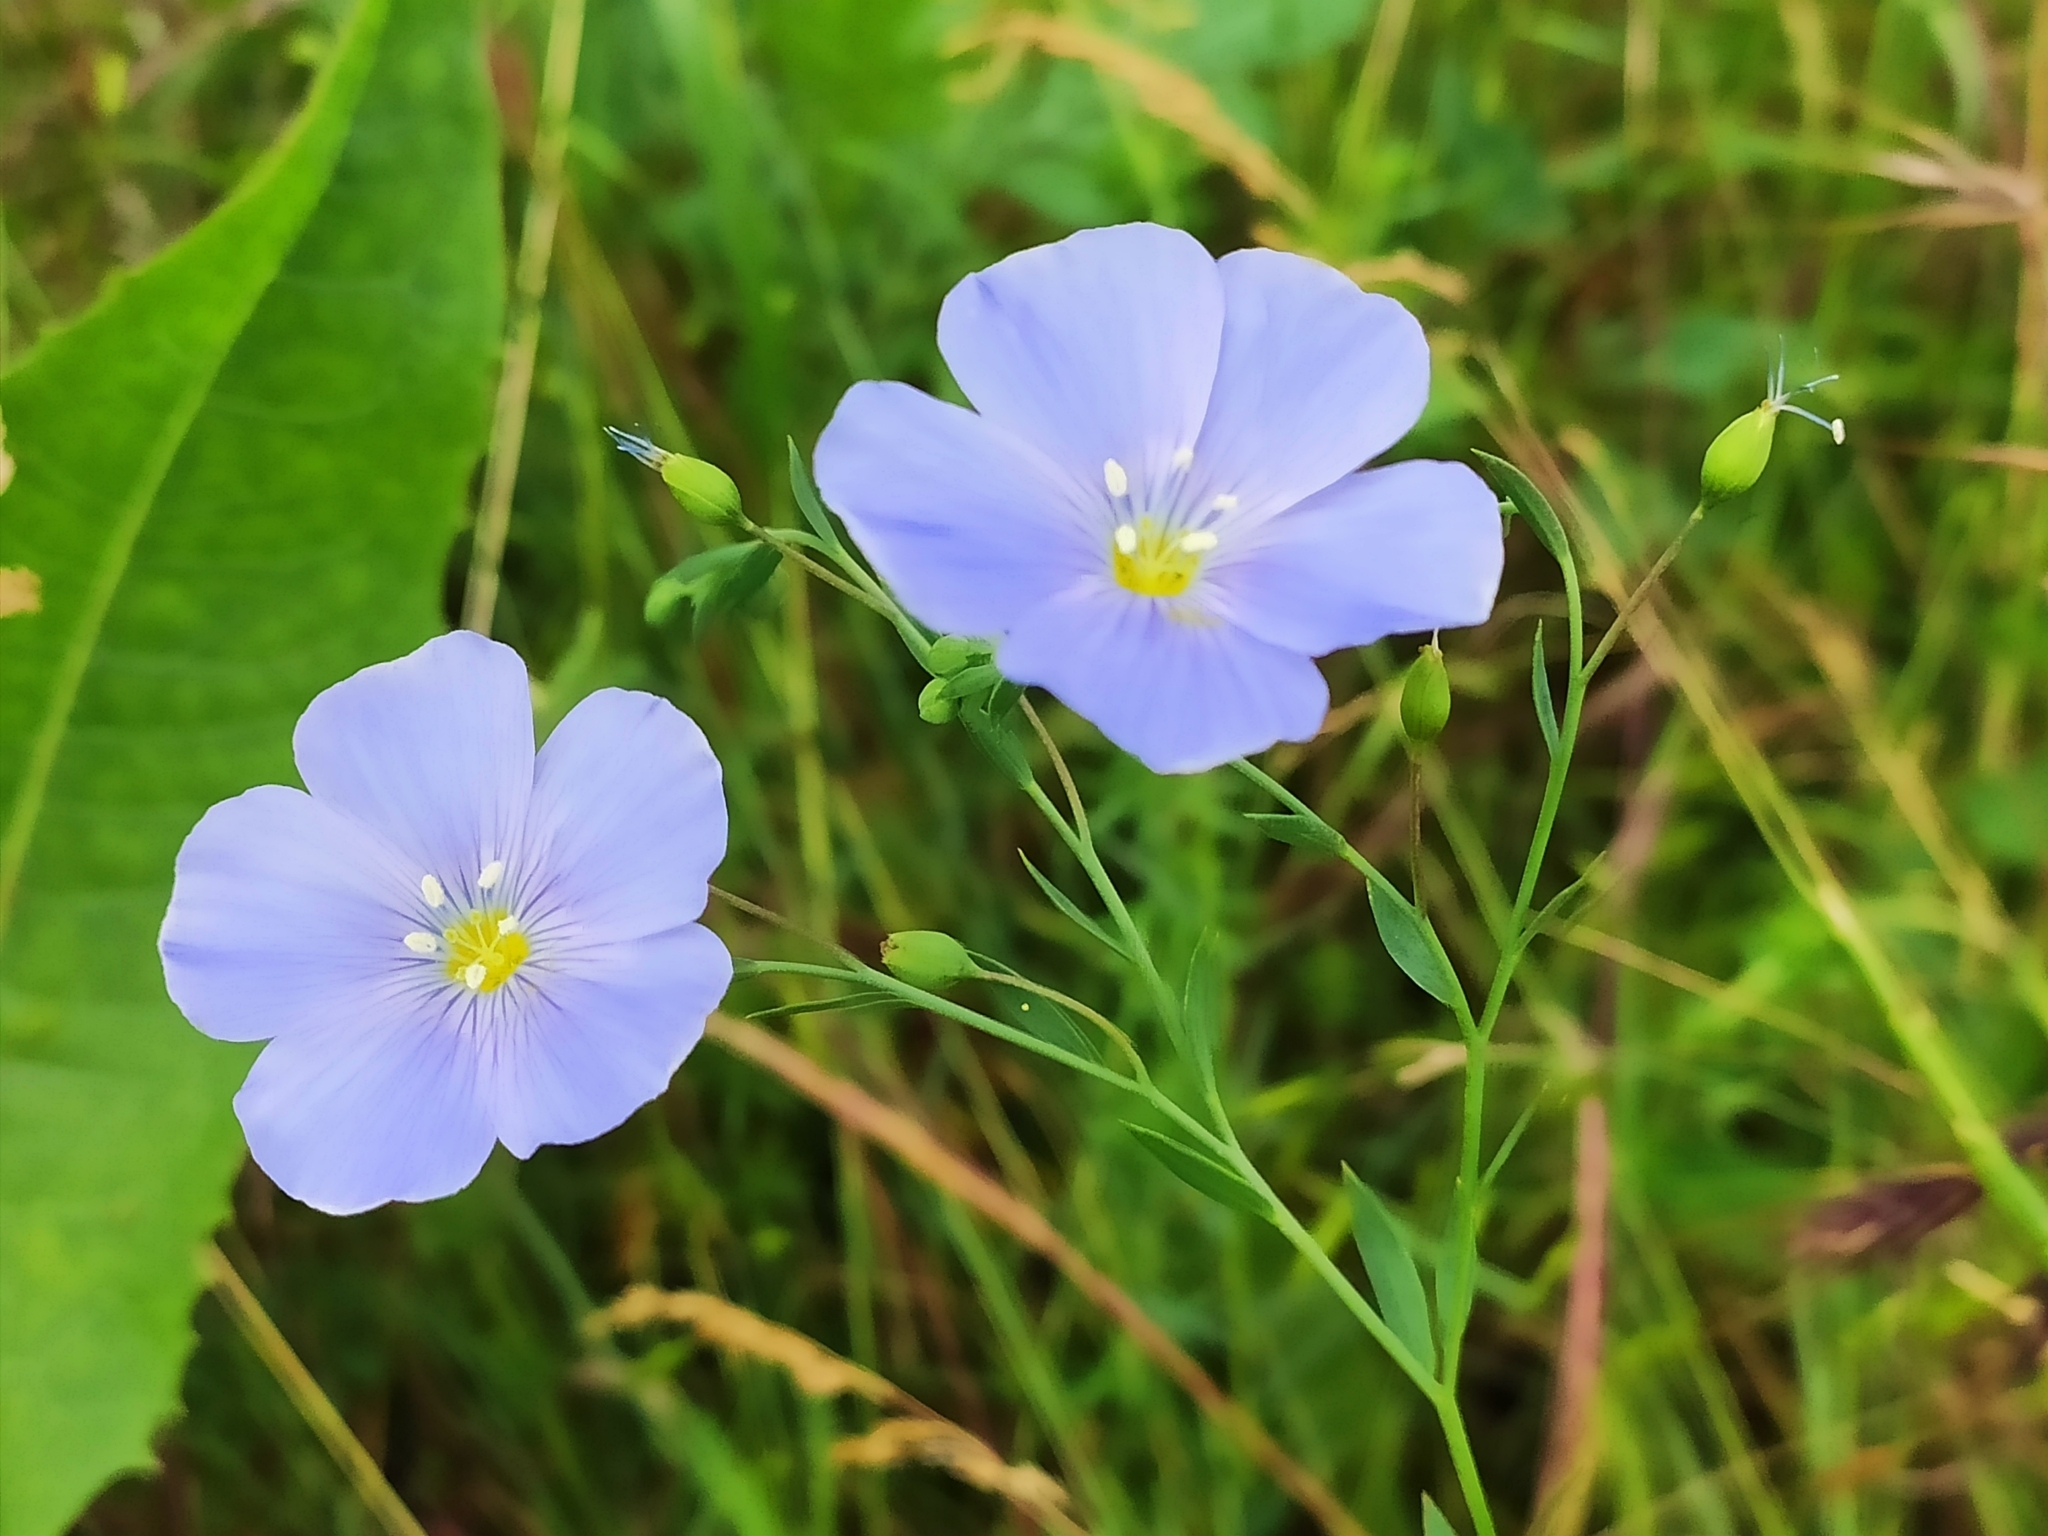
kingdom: Plantae
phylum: Tracheophyta
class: Magnoliopsida
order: Malpighiales
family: Linaceae
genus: Linum
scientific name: Linum austriacum
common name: Austrian flax
